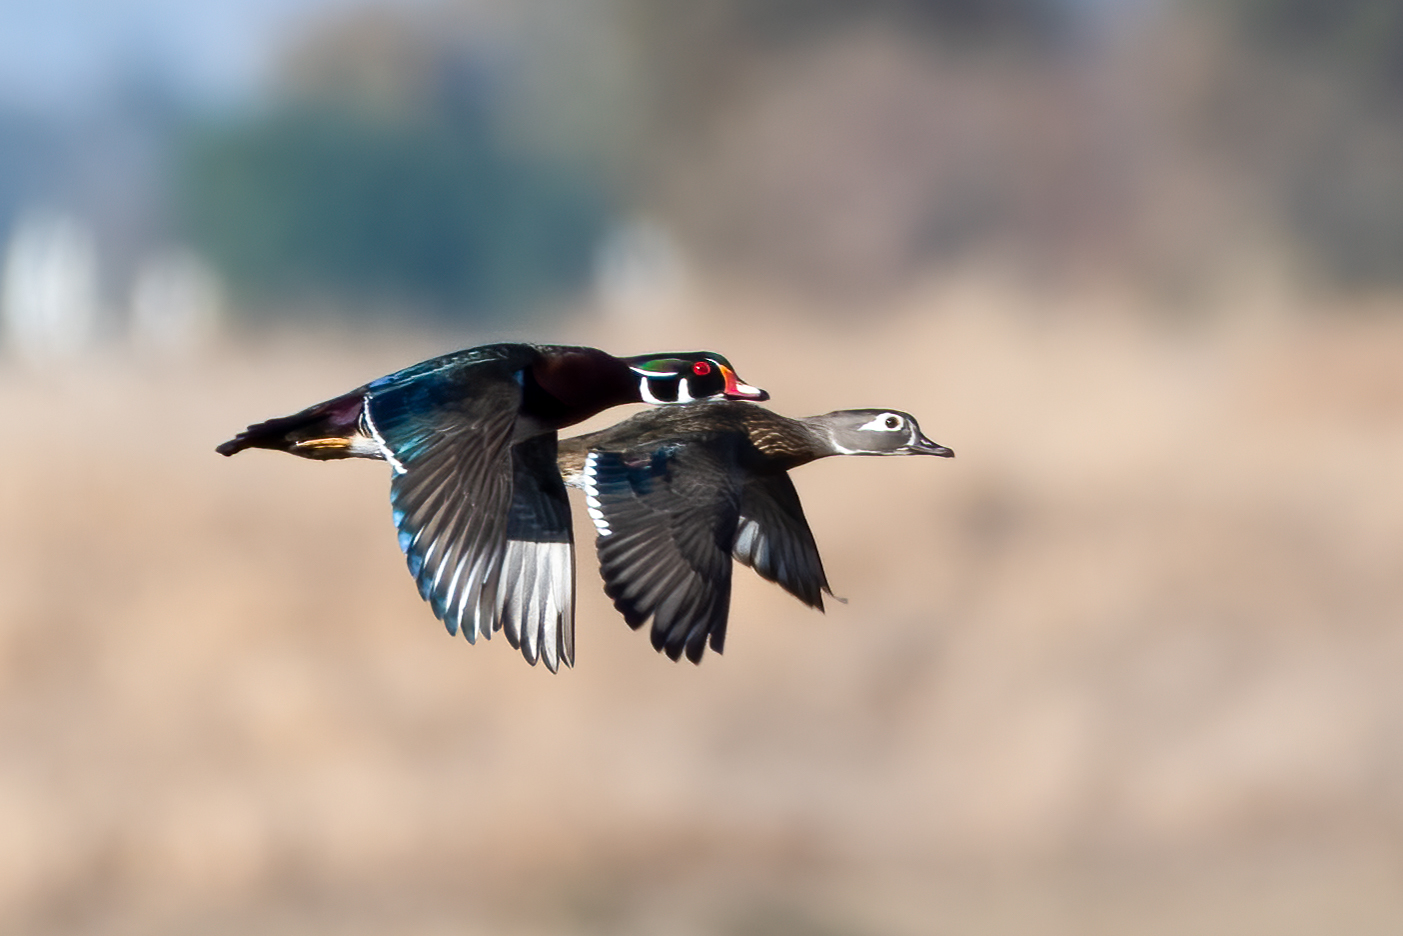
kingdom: Animalia
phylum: Chordata
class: Aves
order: Anseriformes
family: Anatidae
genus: Aix
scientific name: Aix sponsa
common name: Wood duck
